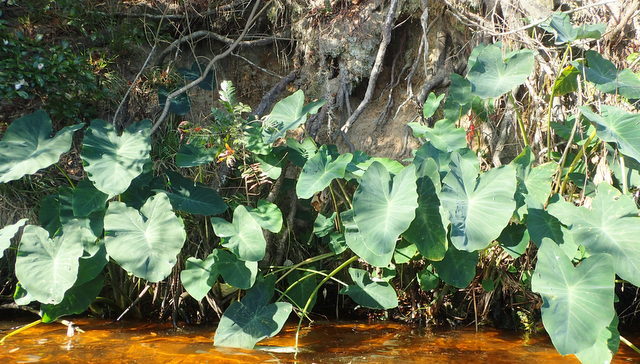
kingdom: Plantae
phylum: Tracheophyta
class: Liliopsida
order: Alismatales
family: Araceae
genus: Colocasia
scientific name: Colocasia esculenta
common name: Taro
